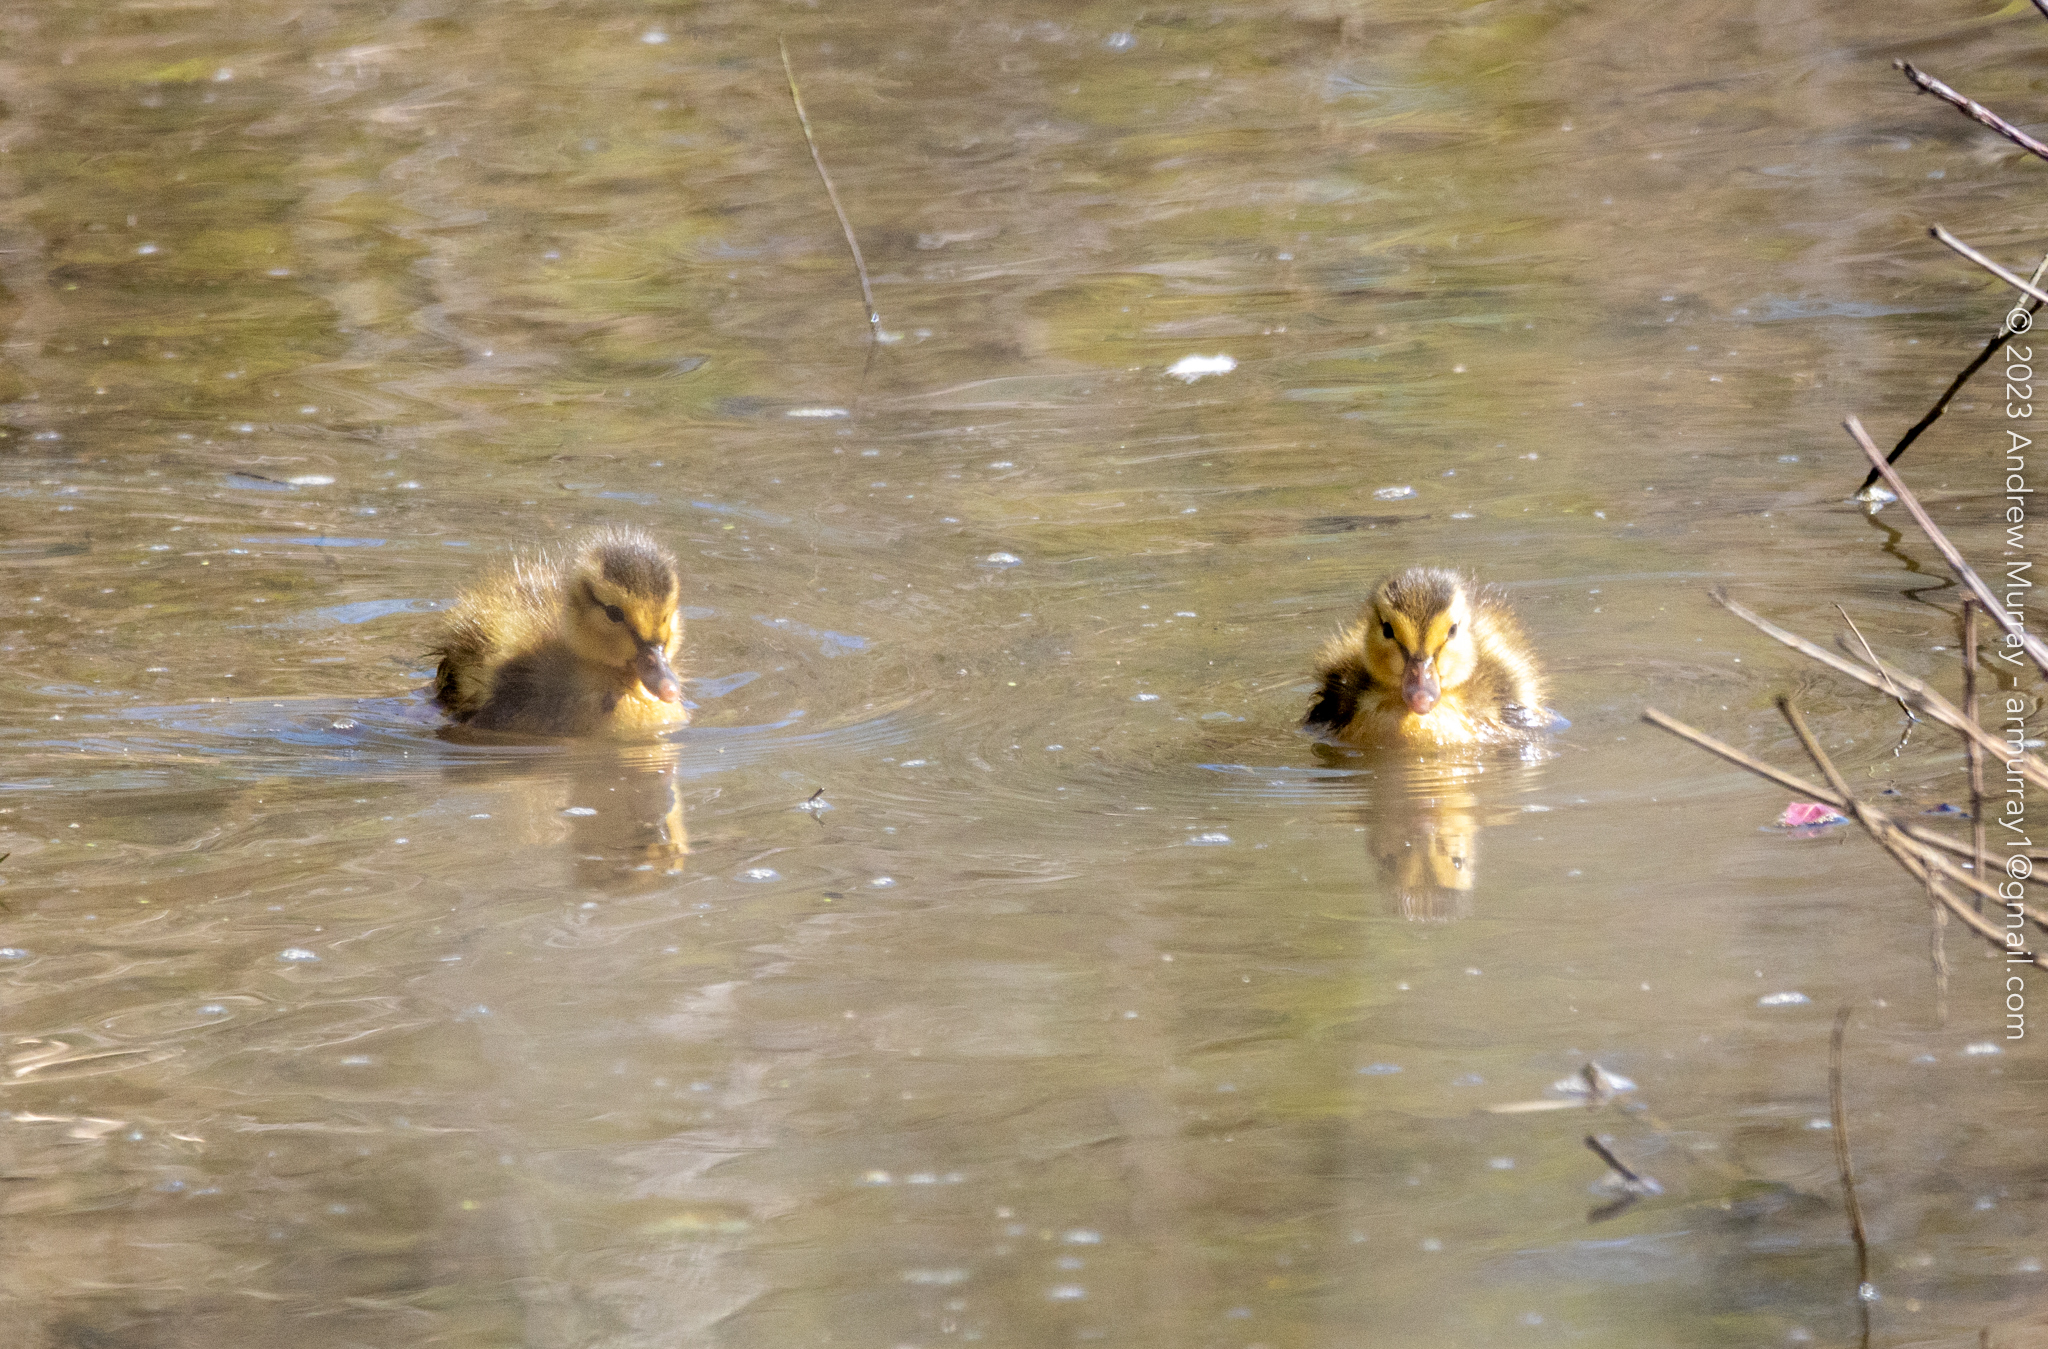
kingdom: Animalia
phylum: Chordata
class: Aves
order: Anseriformes
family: Anatidae
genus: Anas
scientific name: Anas platyrhynchos
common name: Mallard
